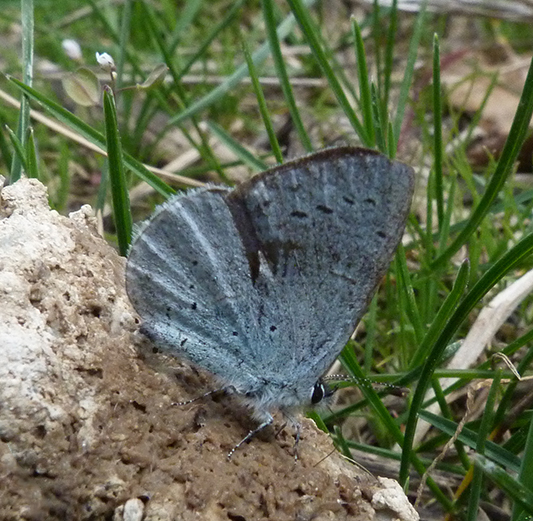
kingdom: Animalia
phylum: Arthropoda
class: Insecta
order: Lepidoptera
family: Lycaenidae
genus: Celastrina
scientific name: Celastrina argiolus
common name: Holly blue
